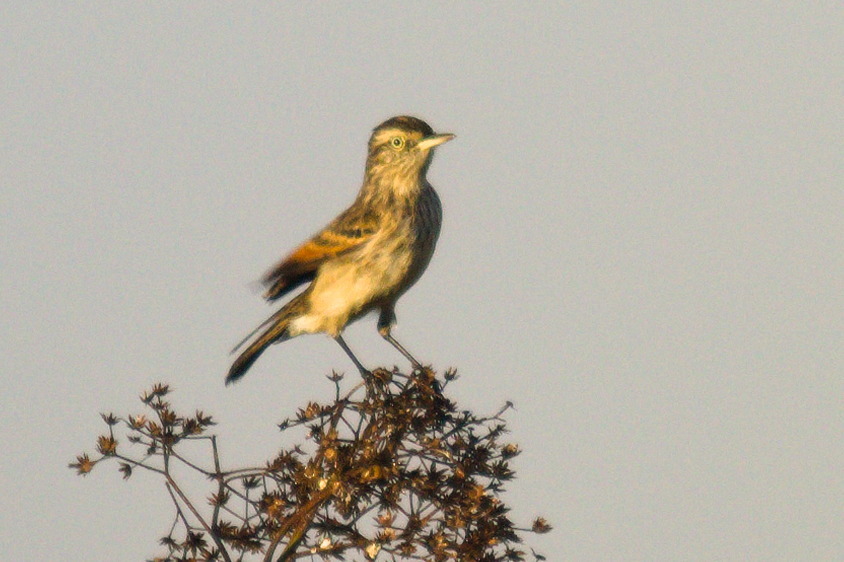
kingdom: Animalia
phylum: Chordata
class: Aves
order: Passeriformes
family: Tyrannidae
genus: Hymenops
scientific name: Hymenops perspicillatus
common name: Spectacled tyrant
